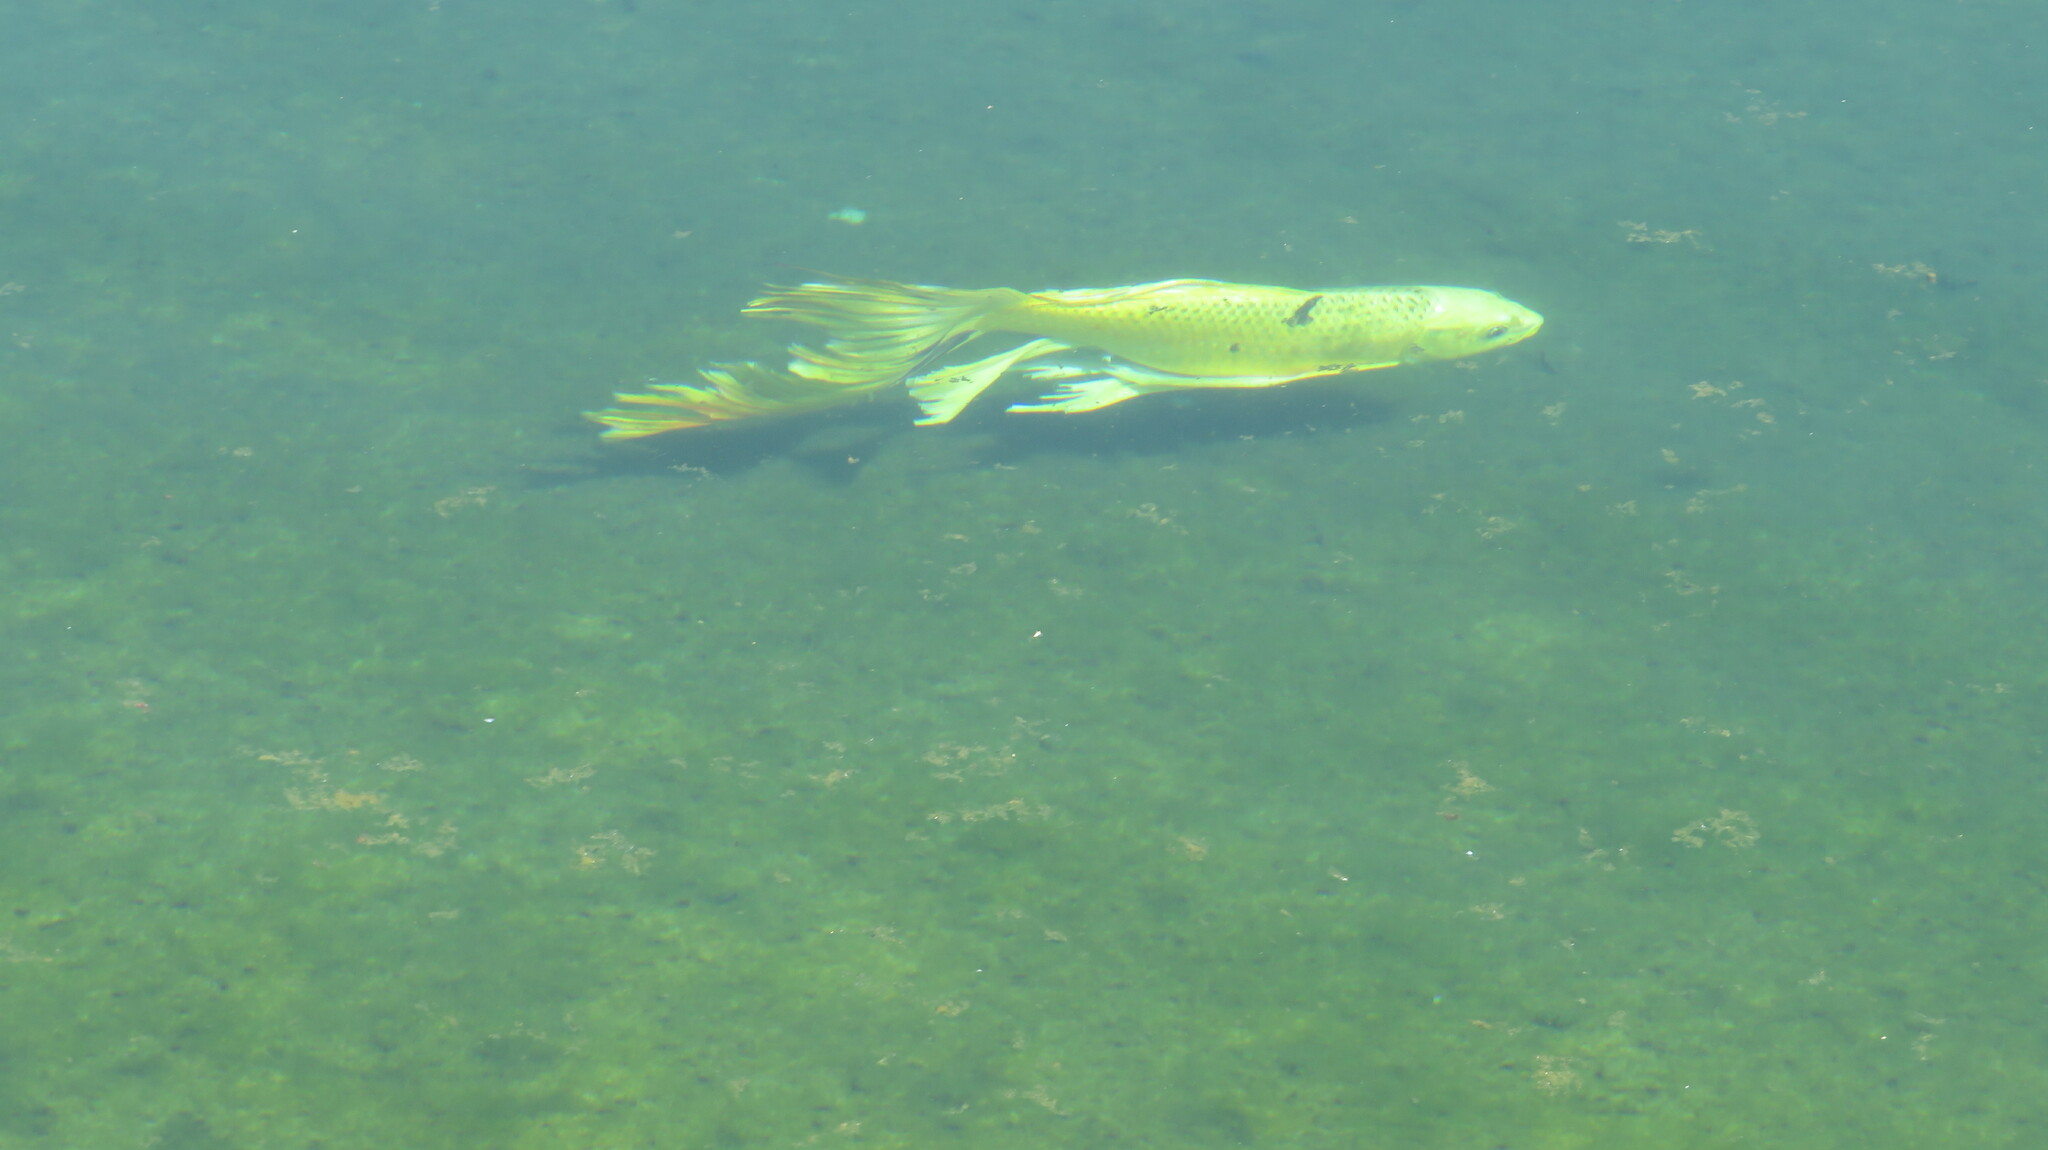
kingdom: Animalia
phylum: Chordata
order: Cypriniformes
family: Cyprinidae
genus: Cyprinus
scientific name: Cyprinus rubrofuscus
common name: Koi
